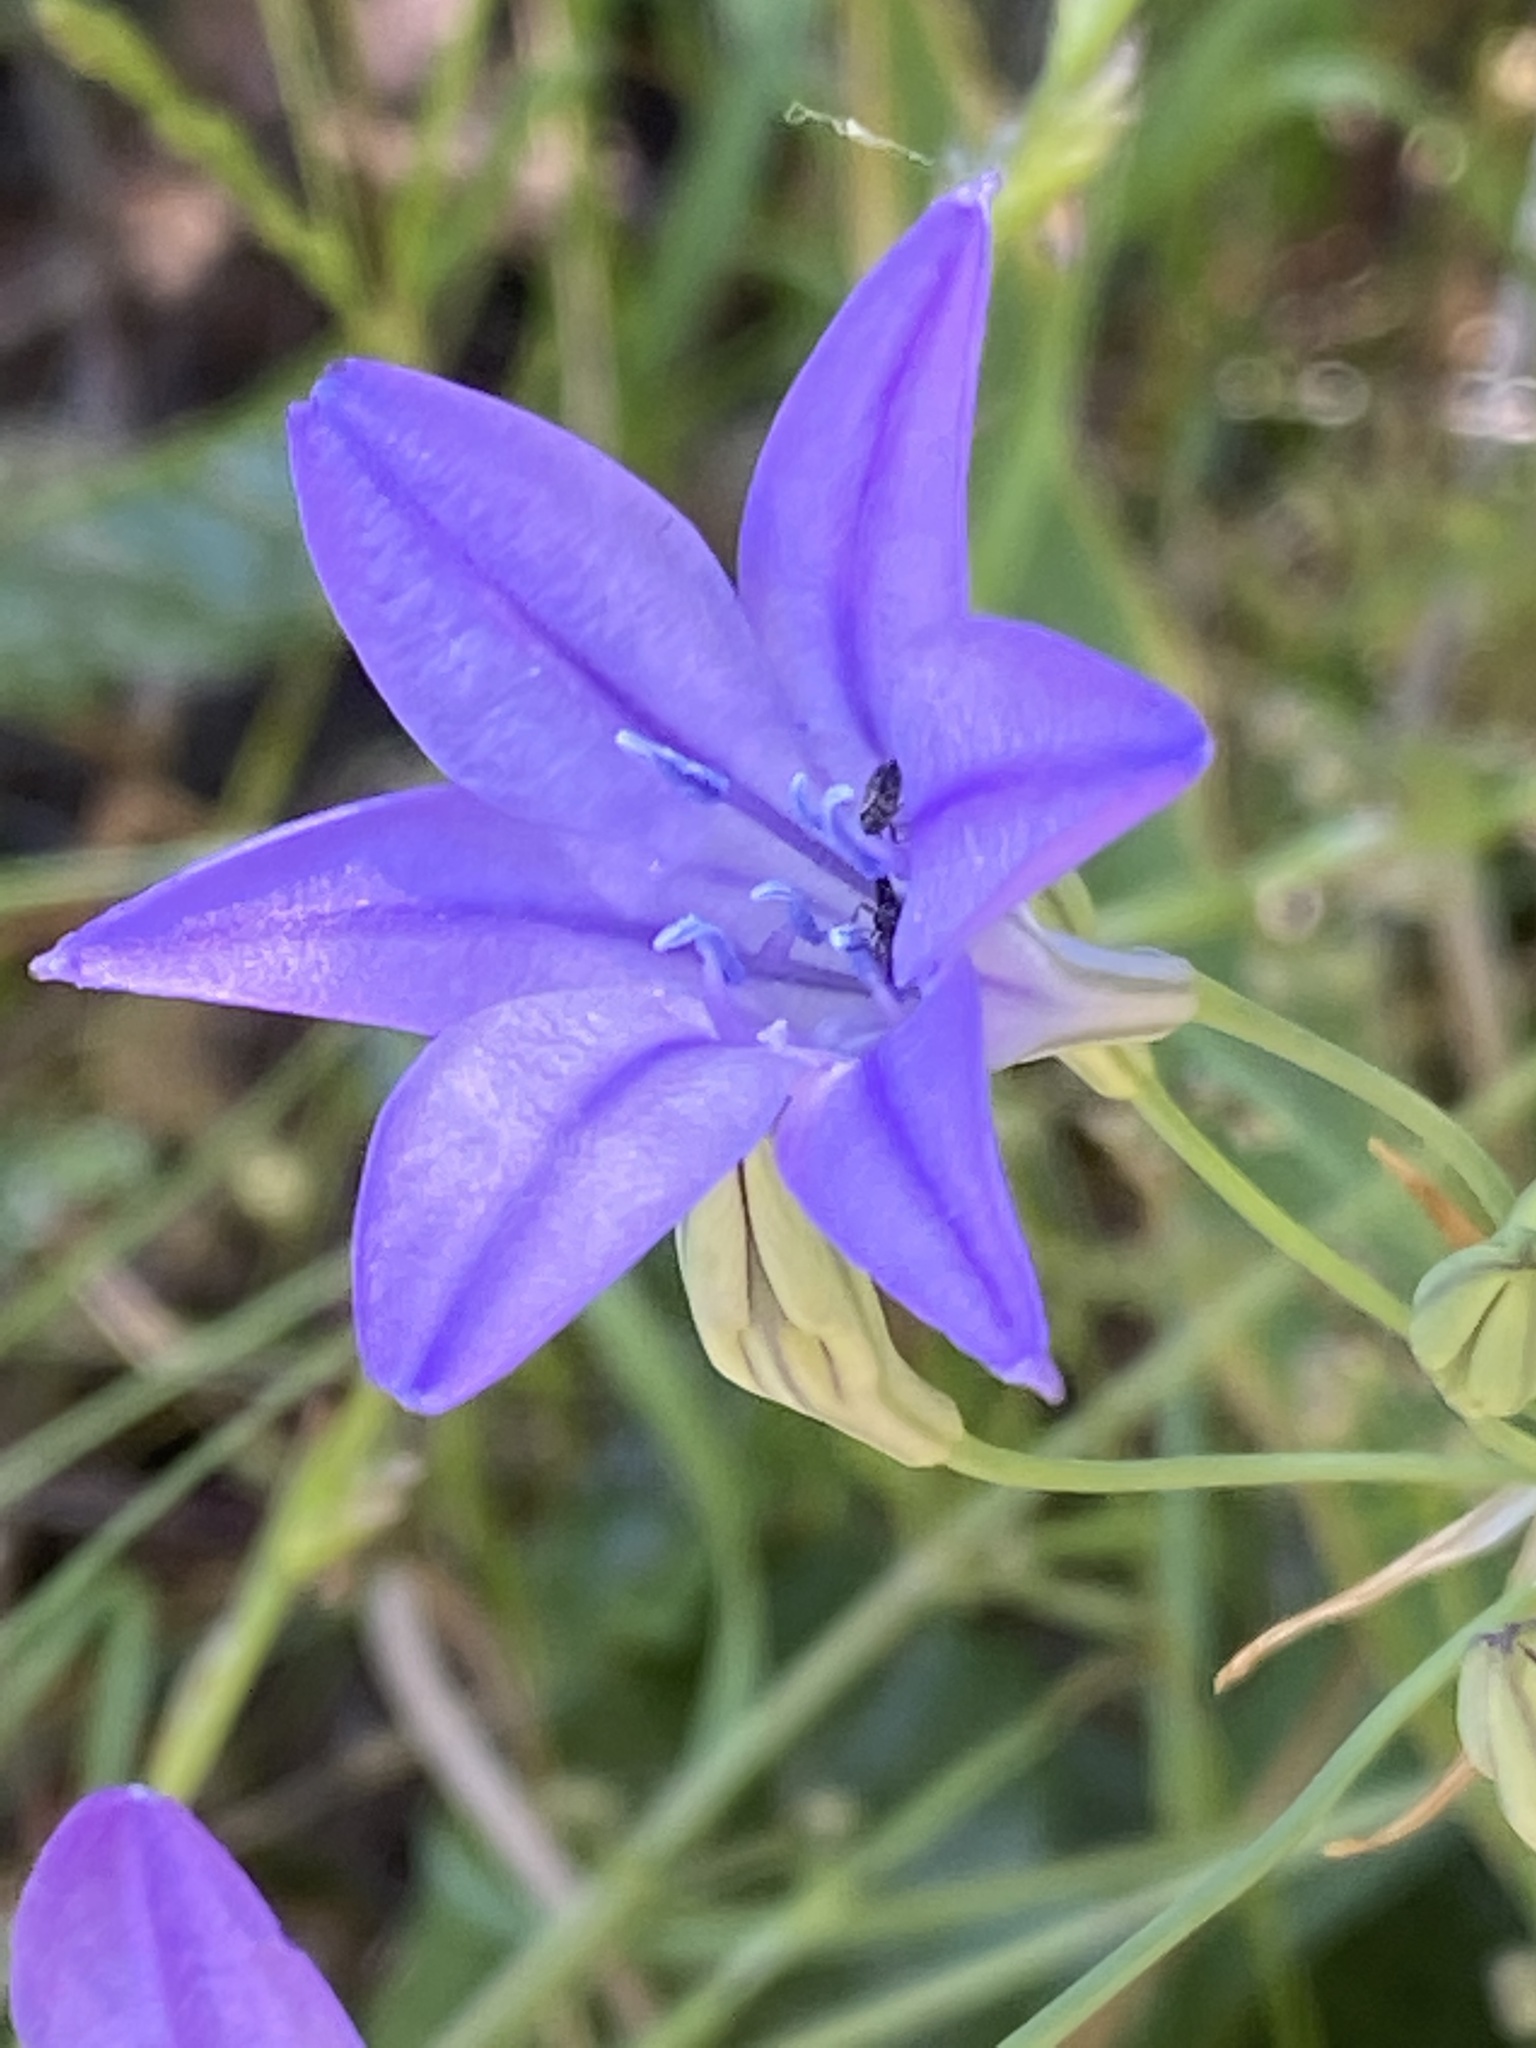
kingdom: Plantae
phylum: Tracheophyta
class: Liliopsida
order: Asparagales
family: Asparagaceae
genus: Triteleia
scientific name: Triteleia laxa
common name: Triplet-lily
